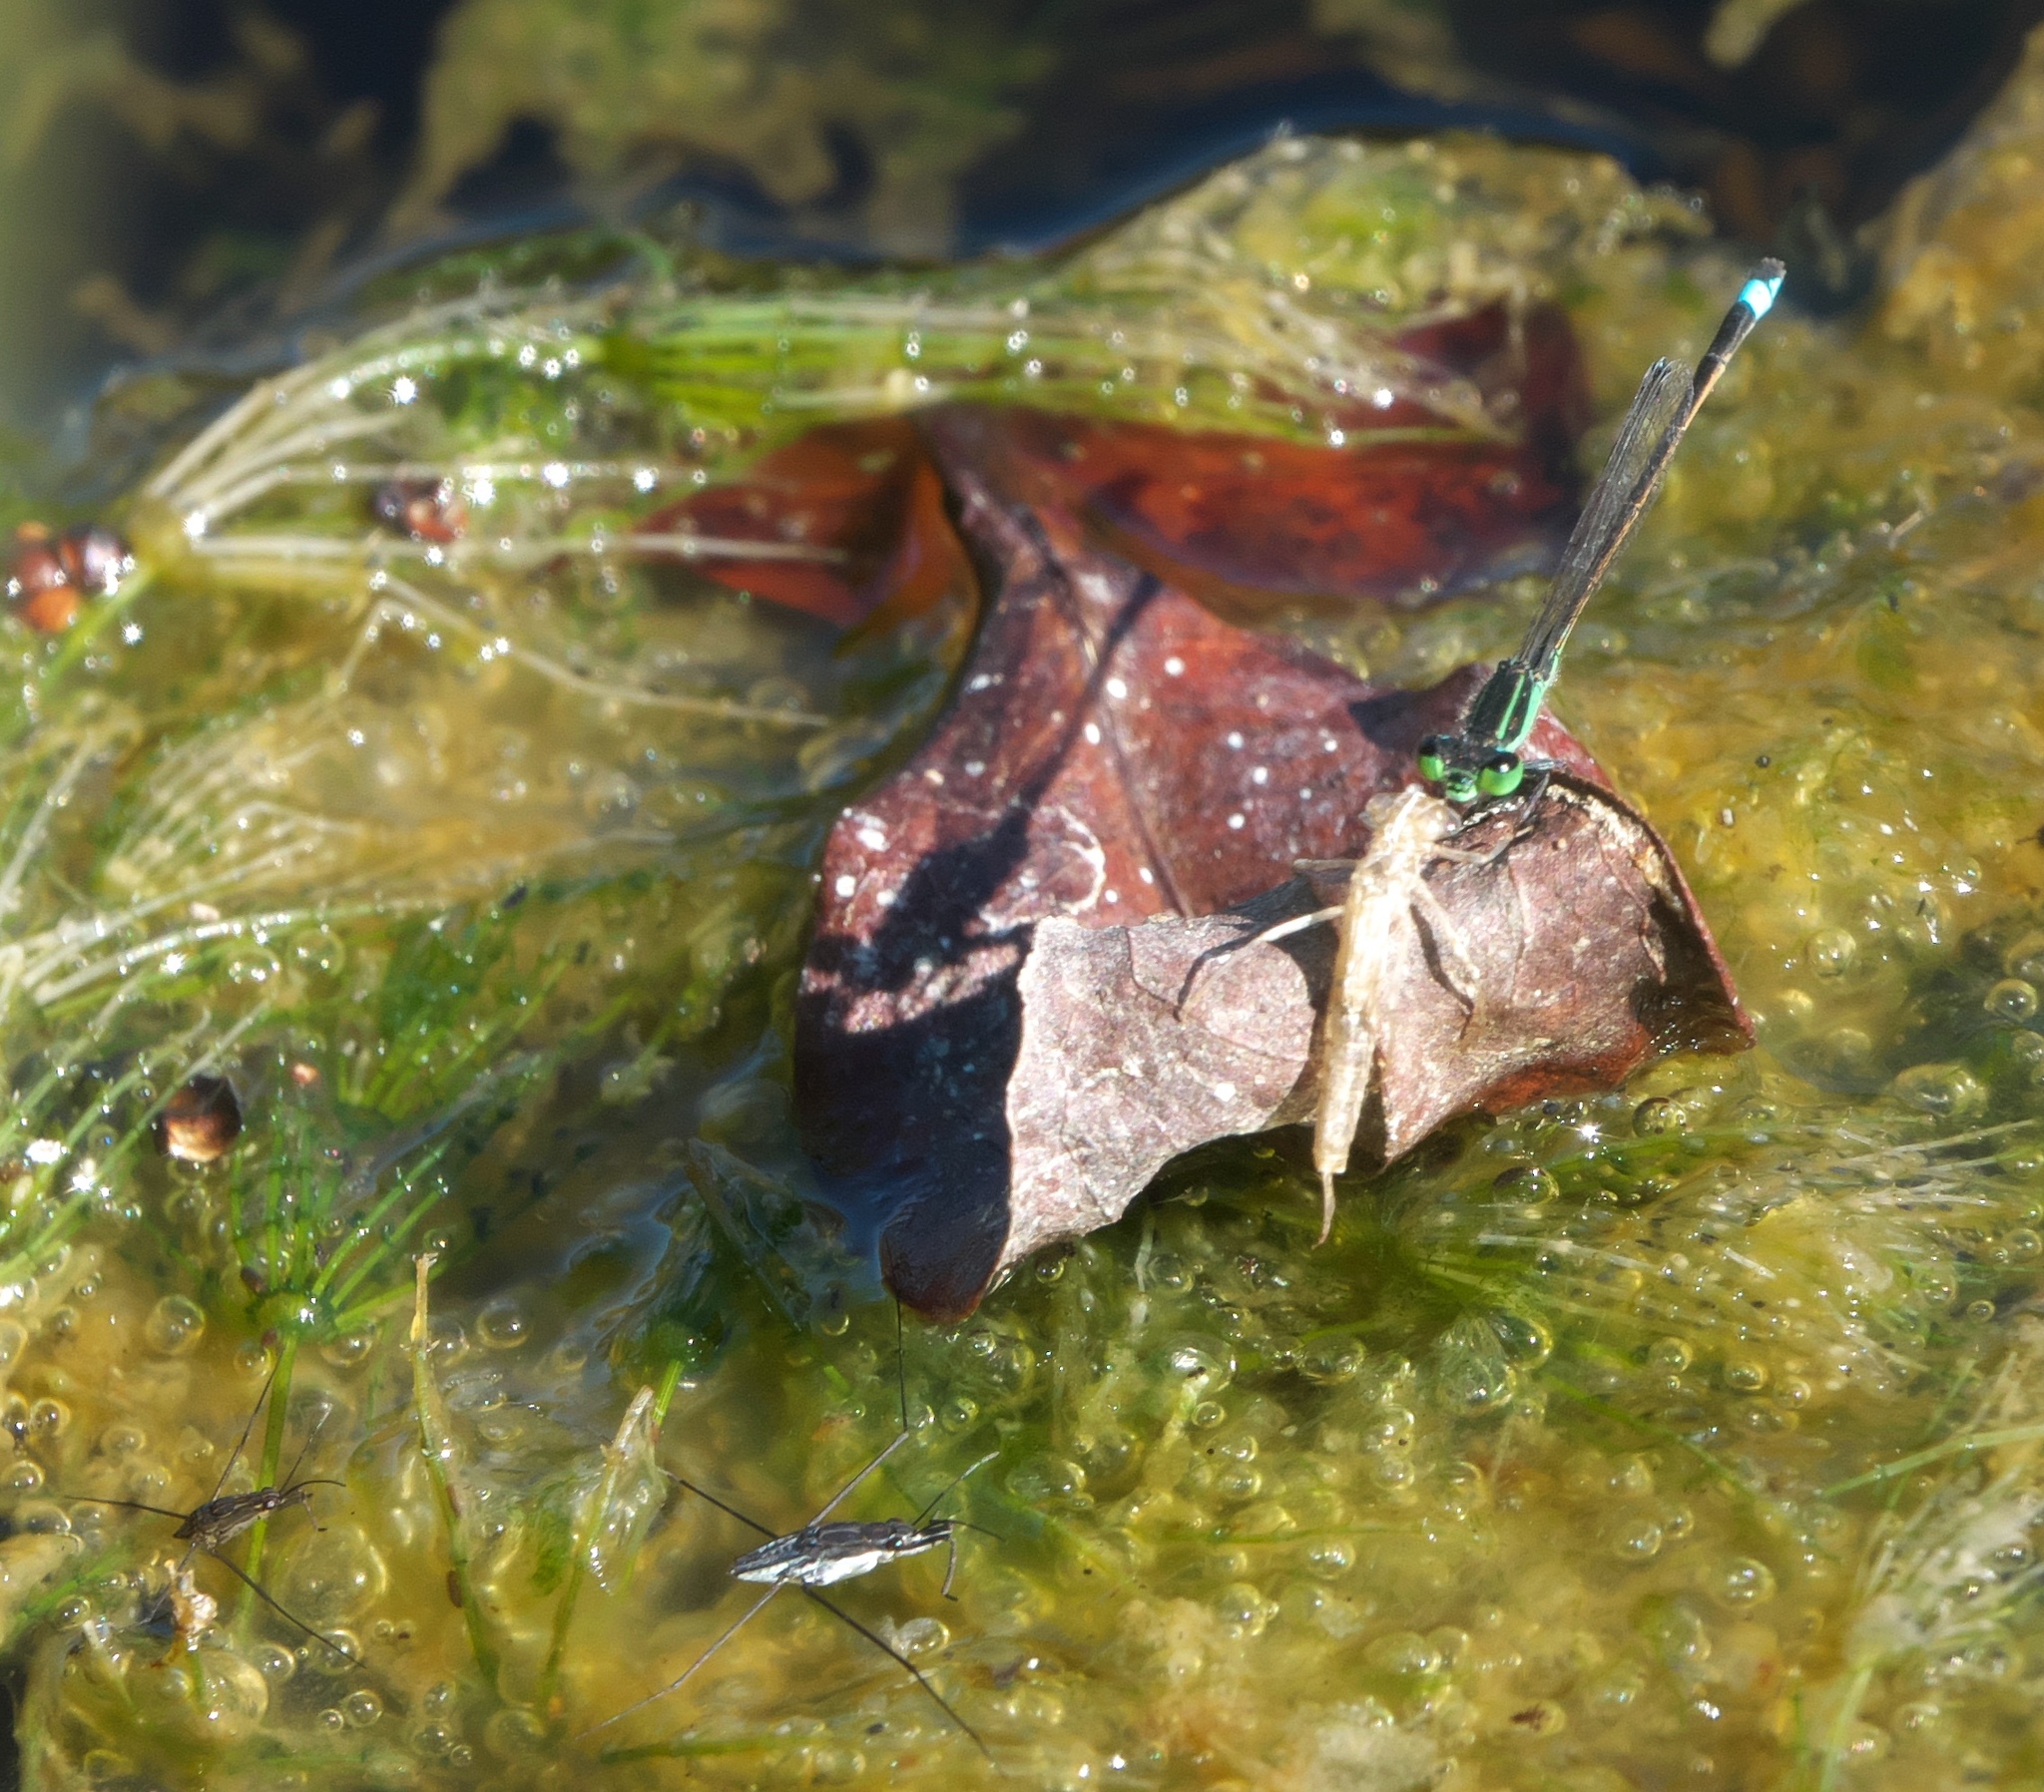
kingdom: Animalia
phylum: Arthropoda
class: Insecta
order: Odonata
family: Coenagrionidae
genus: Ischnura
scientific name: Ischnura ramburii
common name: Rambur's forktail
